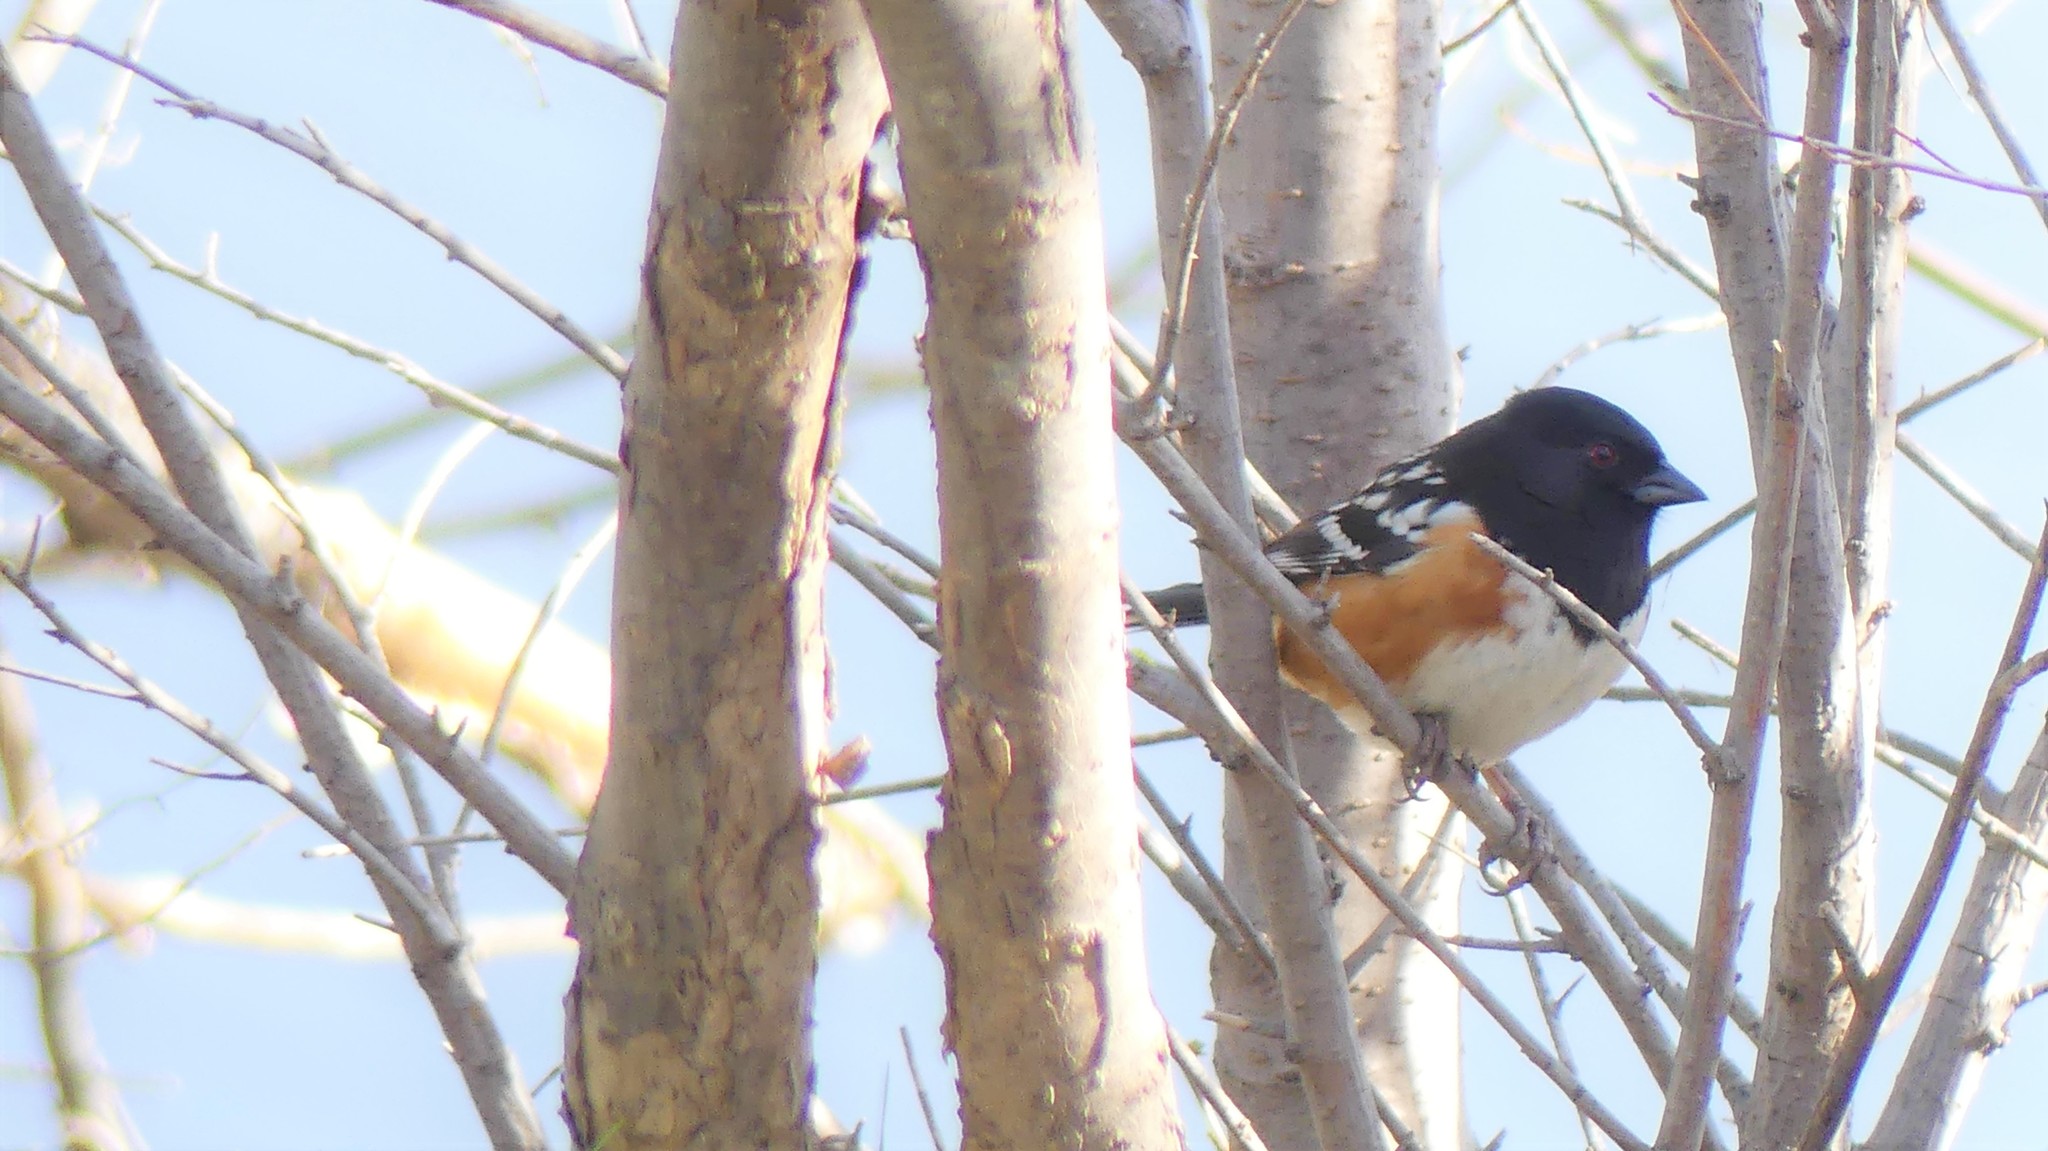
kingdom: Animalia
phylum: Chordata
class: Aves
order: Passeriformes
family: Passerellidae
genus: Pipilo
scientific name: Pipilo maculatus
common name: Spotted towhee
